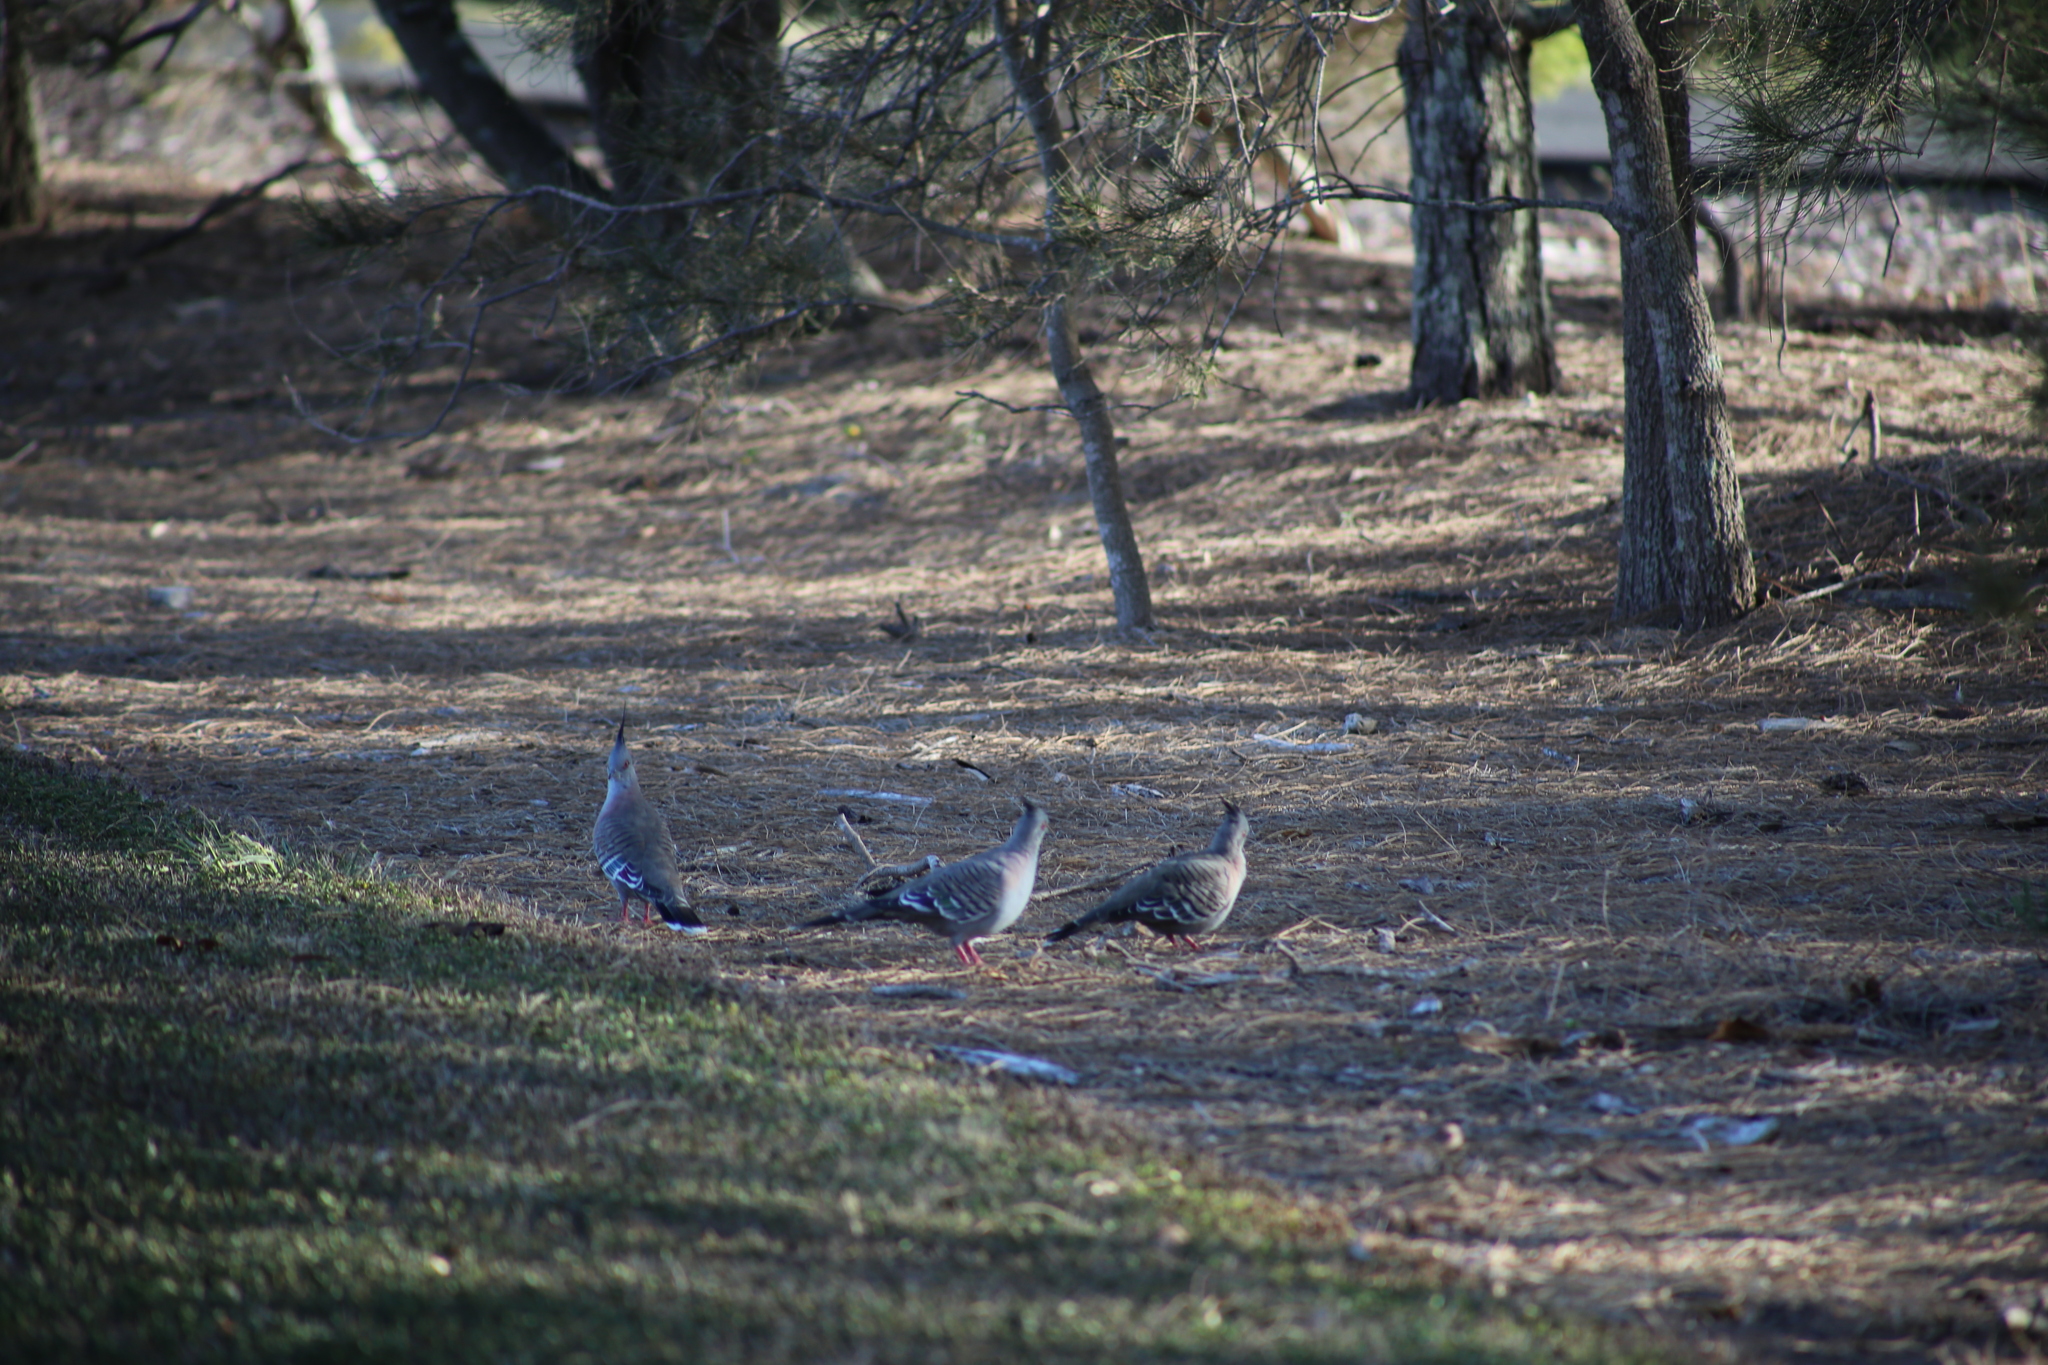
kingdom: Animalia
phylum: Chordata
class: Aves
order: Columbiformes
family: Columbidae
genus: Ocyphaps
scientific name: Ocyphaps lophotes
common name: Crested pigeon
